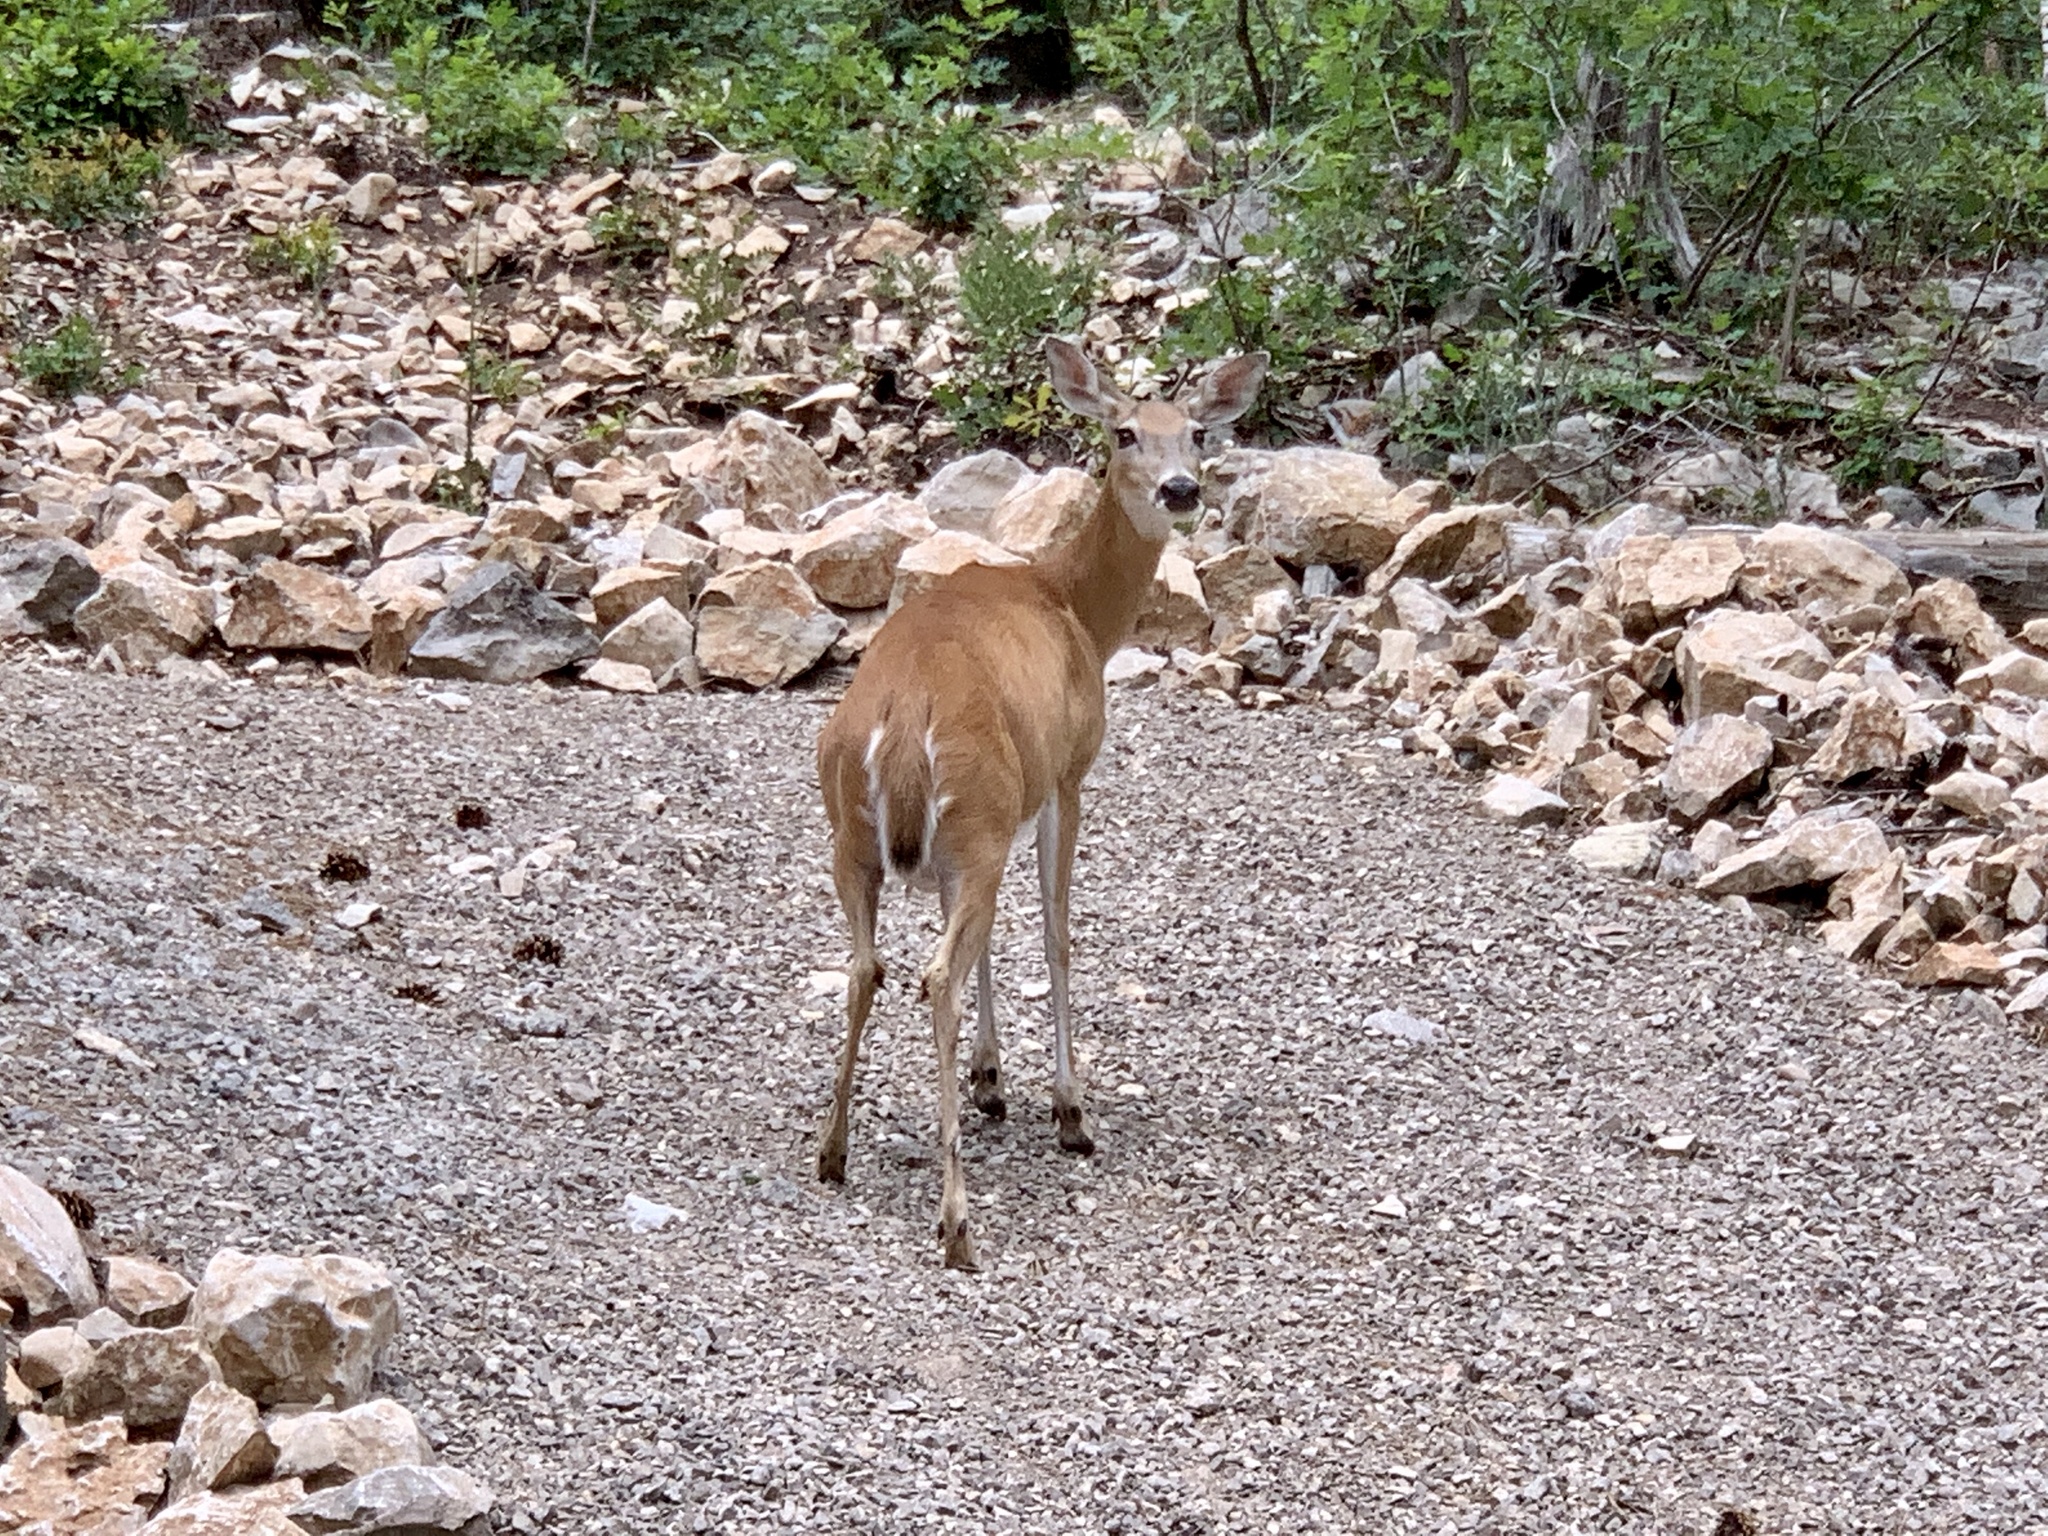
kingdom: Animalia
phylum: Chordata
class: Mammalia
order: Artiodactyla
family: Cervidae
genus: Odocoileus
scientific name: Odocoileus virginianus
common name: White-tailed deer
